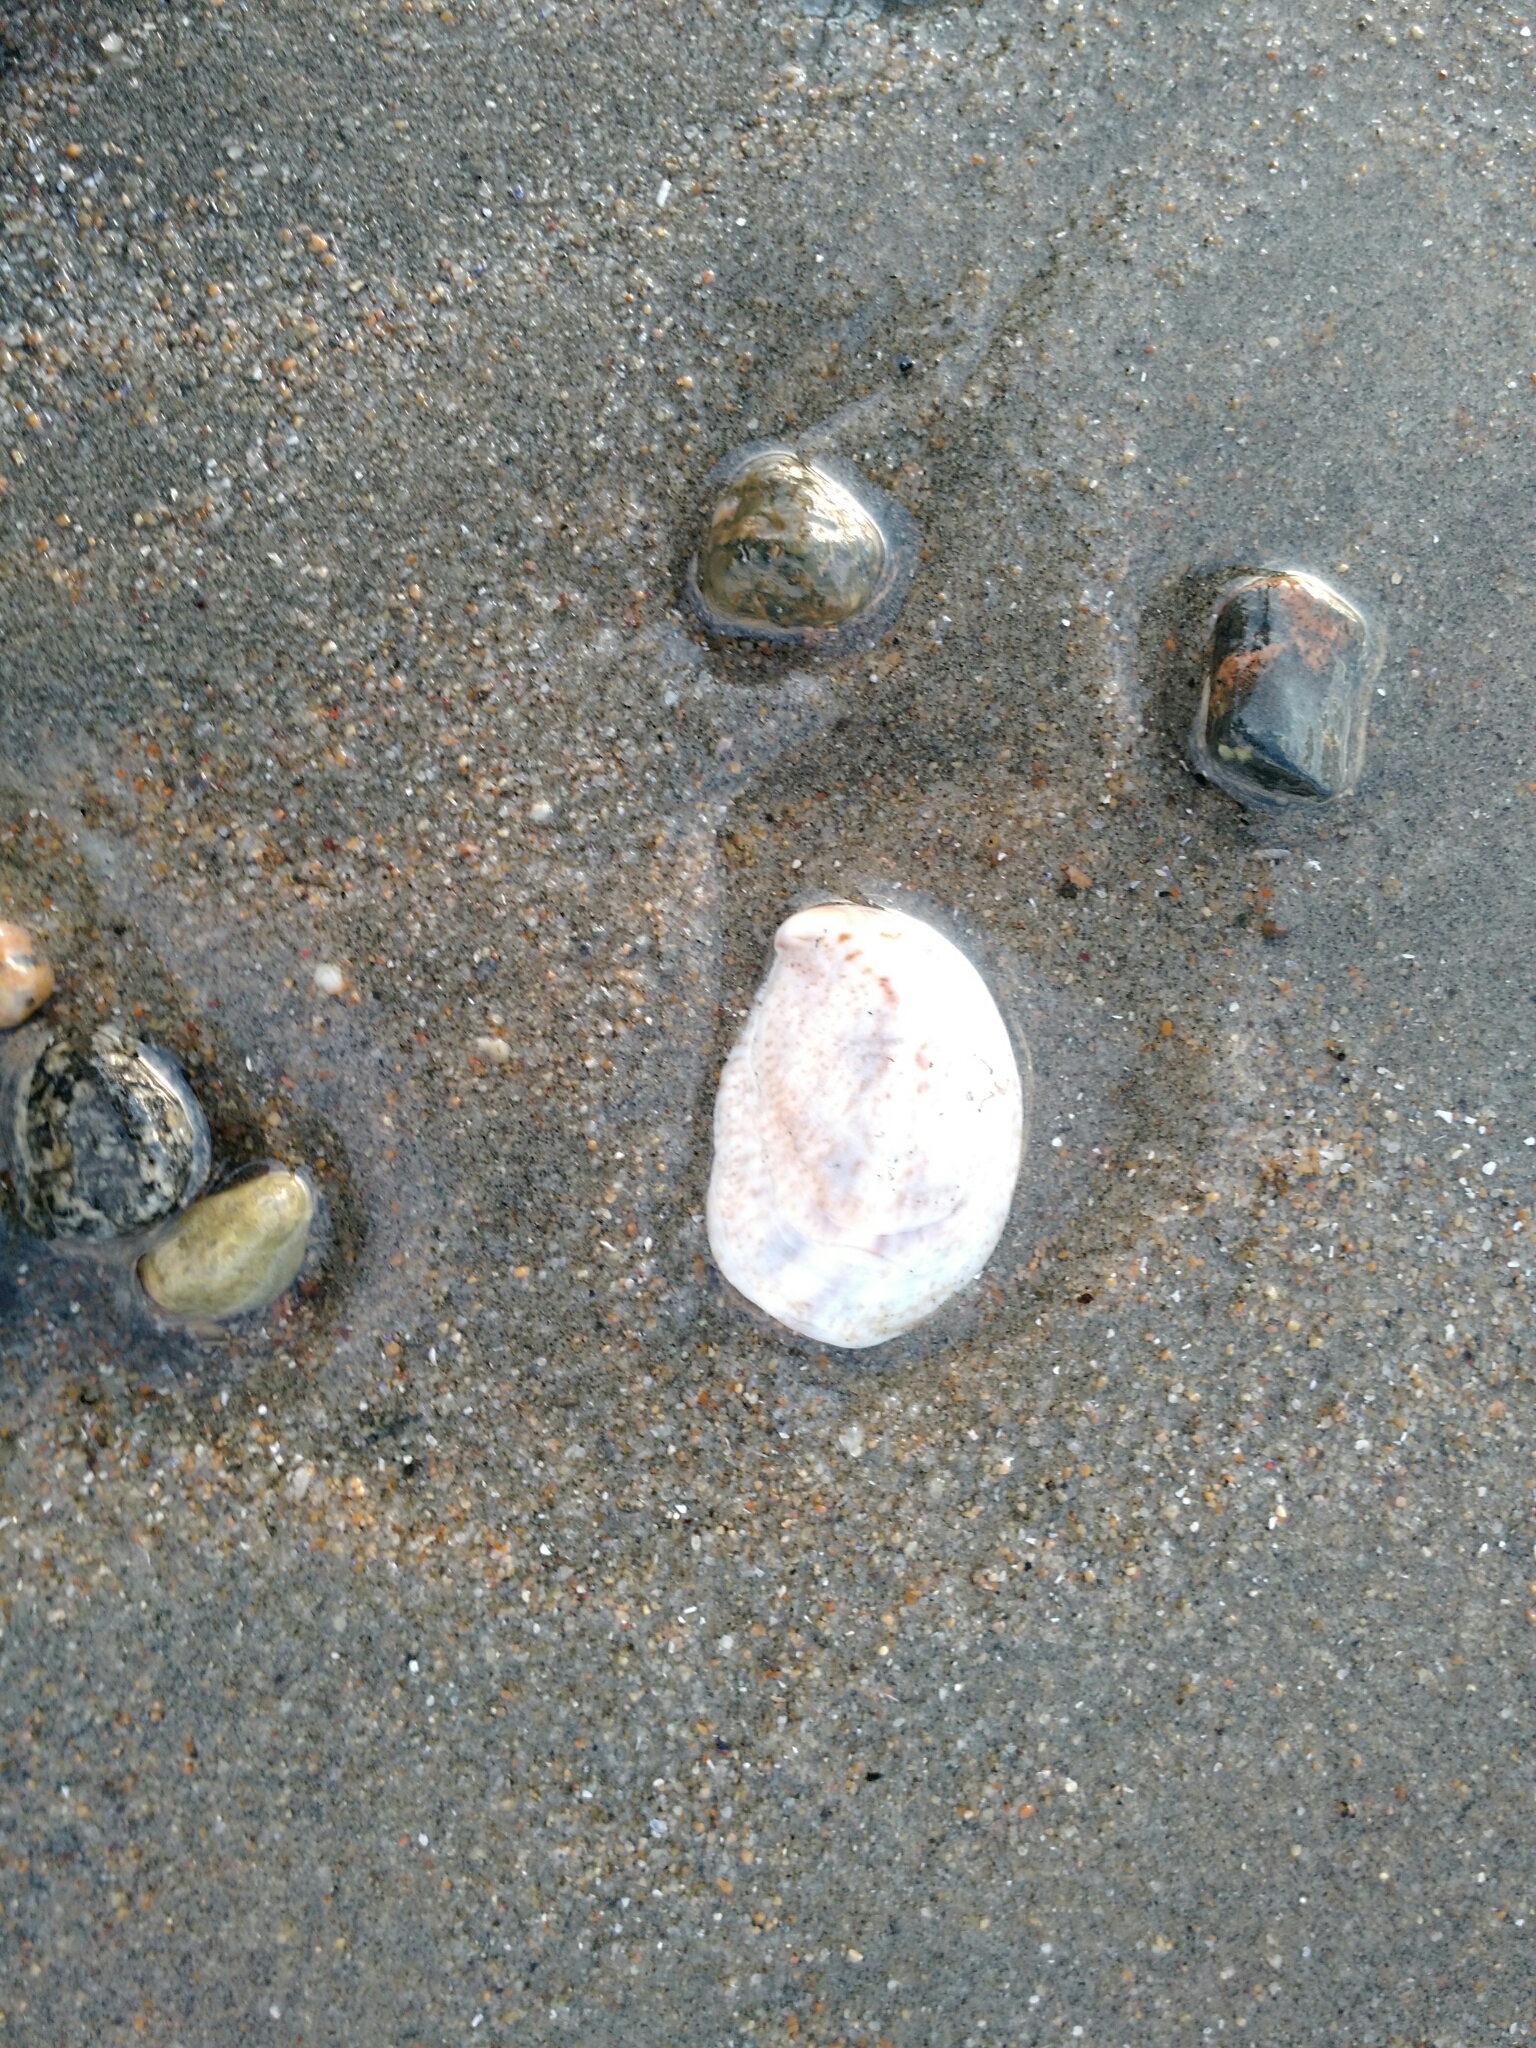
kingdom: Animalia
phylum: Mollusca
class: Gastropoda
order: Littorinimorpha
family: Calyptraeidae
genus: Crepidula
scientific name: Crepidula fornicata
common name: Slipper limpet
